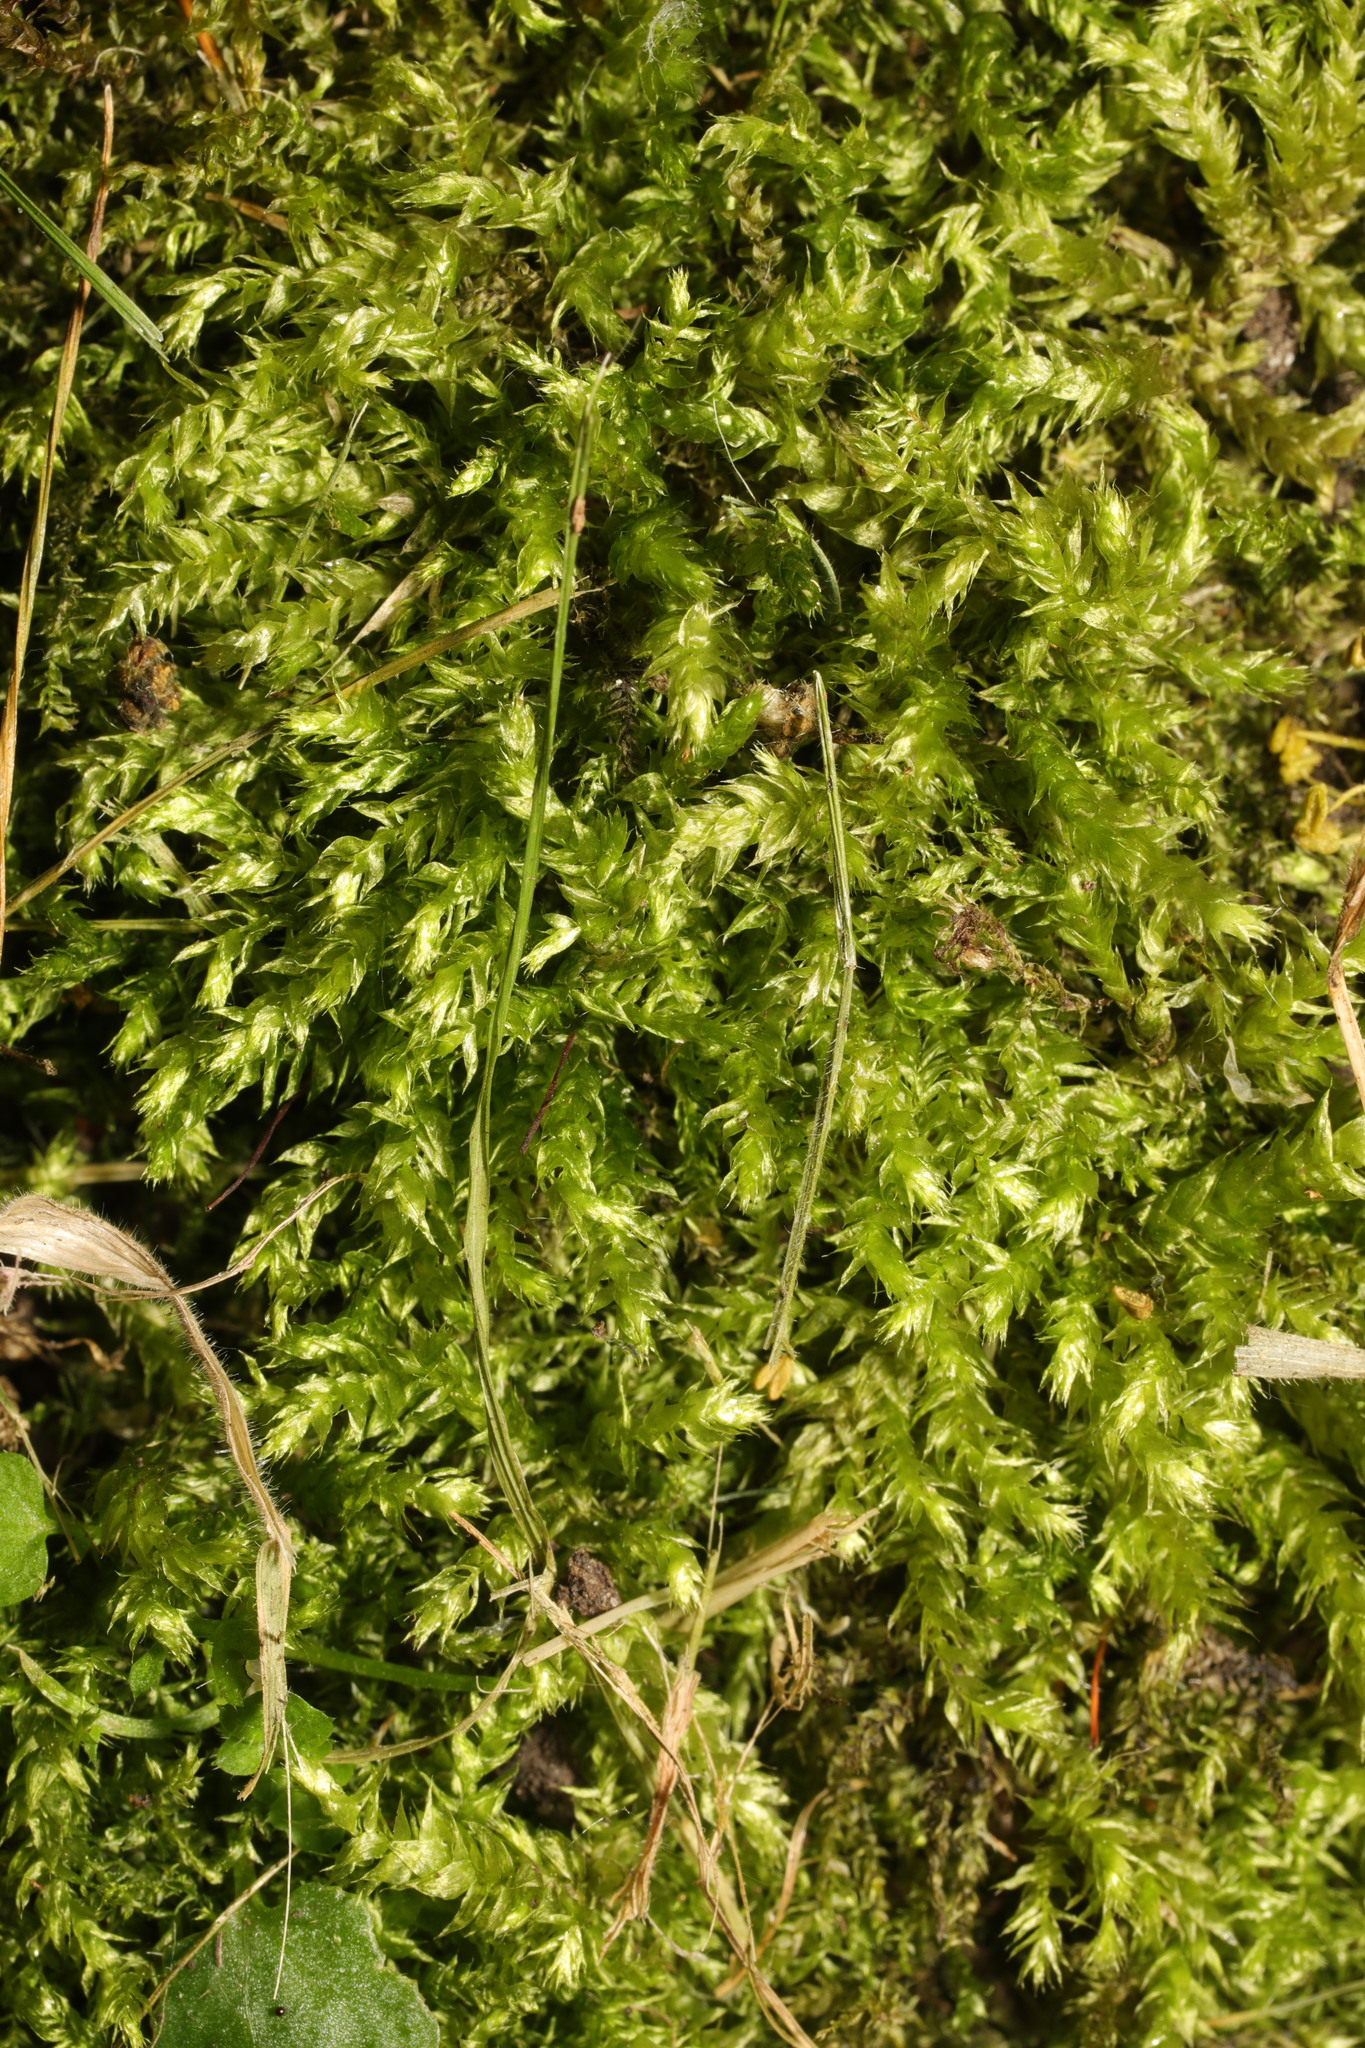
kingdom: Plantae
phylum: Bryophyta
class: Bryopsida
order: Hypnales
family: Brachytheciaceae
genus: Brachythecium
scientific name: Brachythecium rutabulum
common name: Rough-stalked feather-moss
